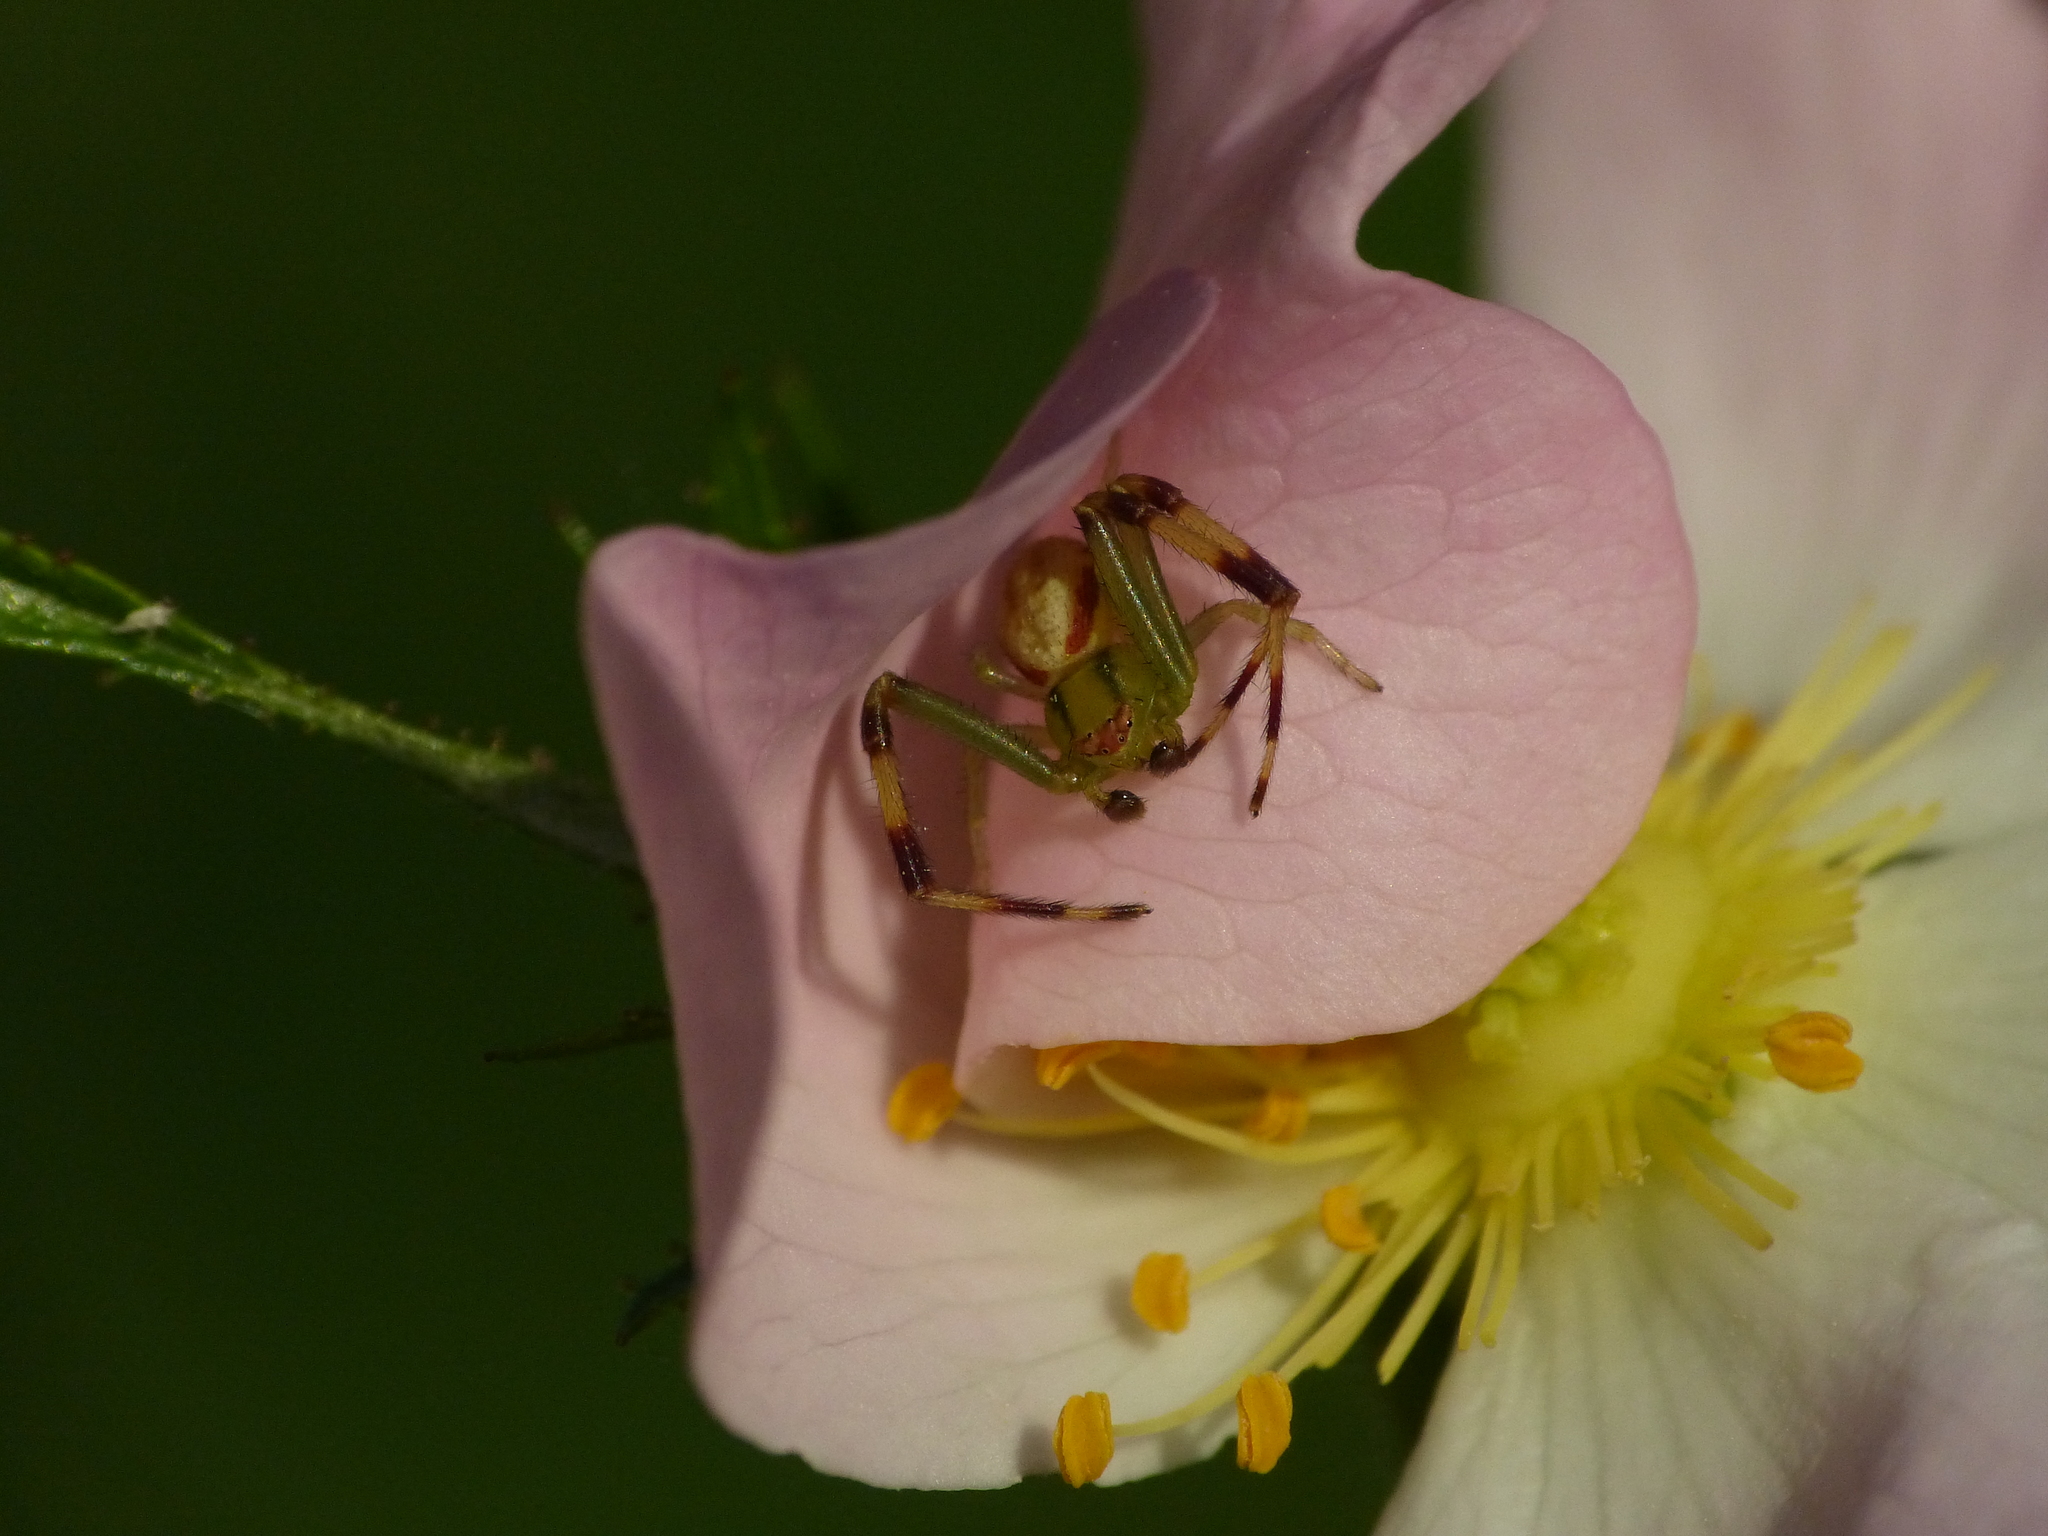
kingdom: Animalia
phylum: Arthropoda
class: Arachnida
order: Araneae
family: Thomisidae
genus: Misumena
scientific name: Misumena vatia
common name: Goldenrod crab spider
